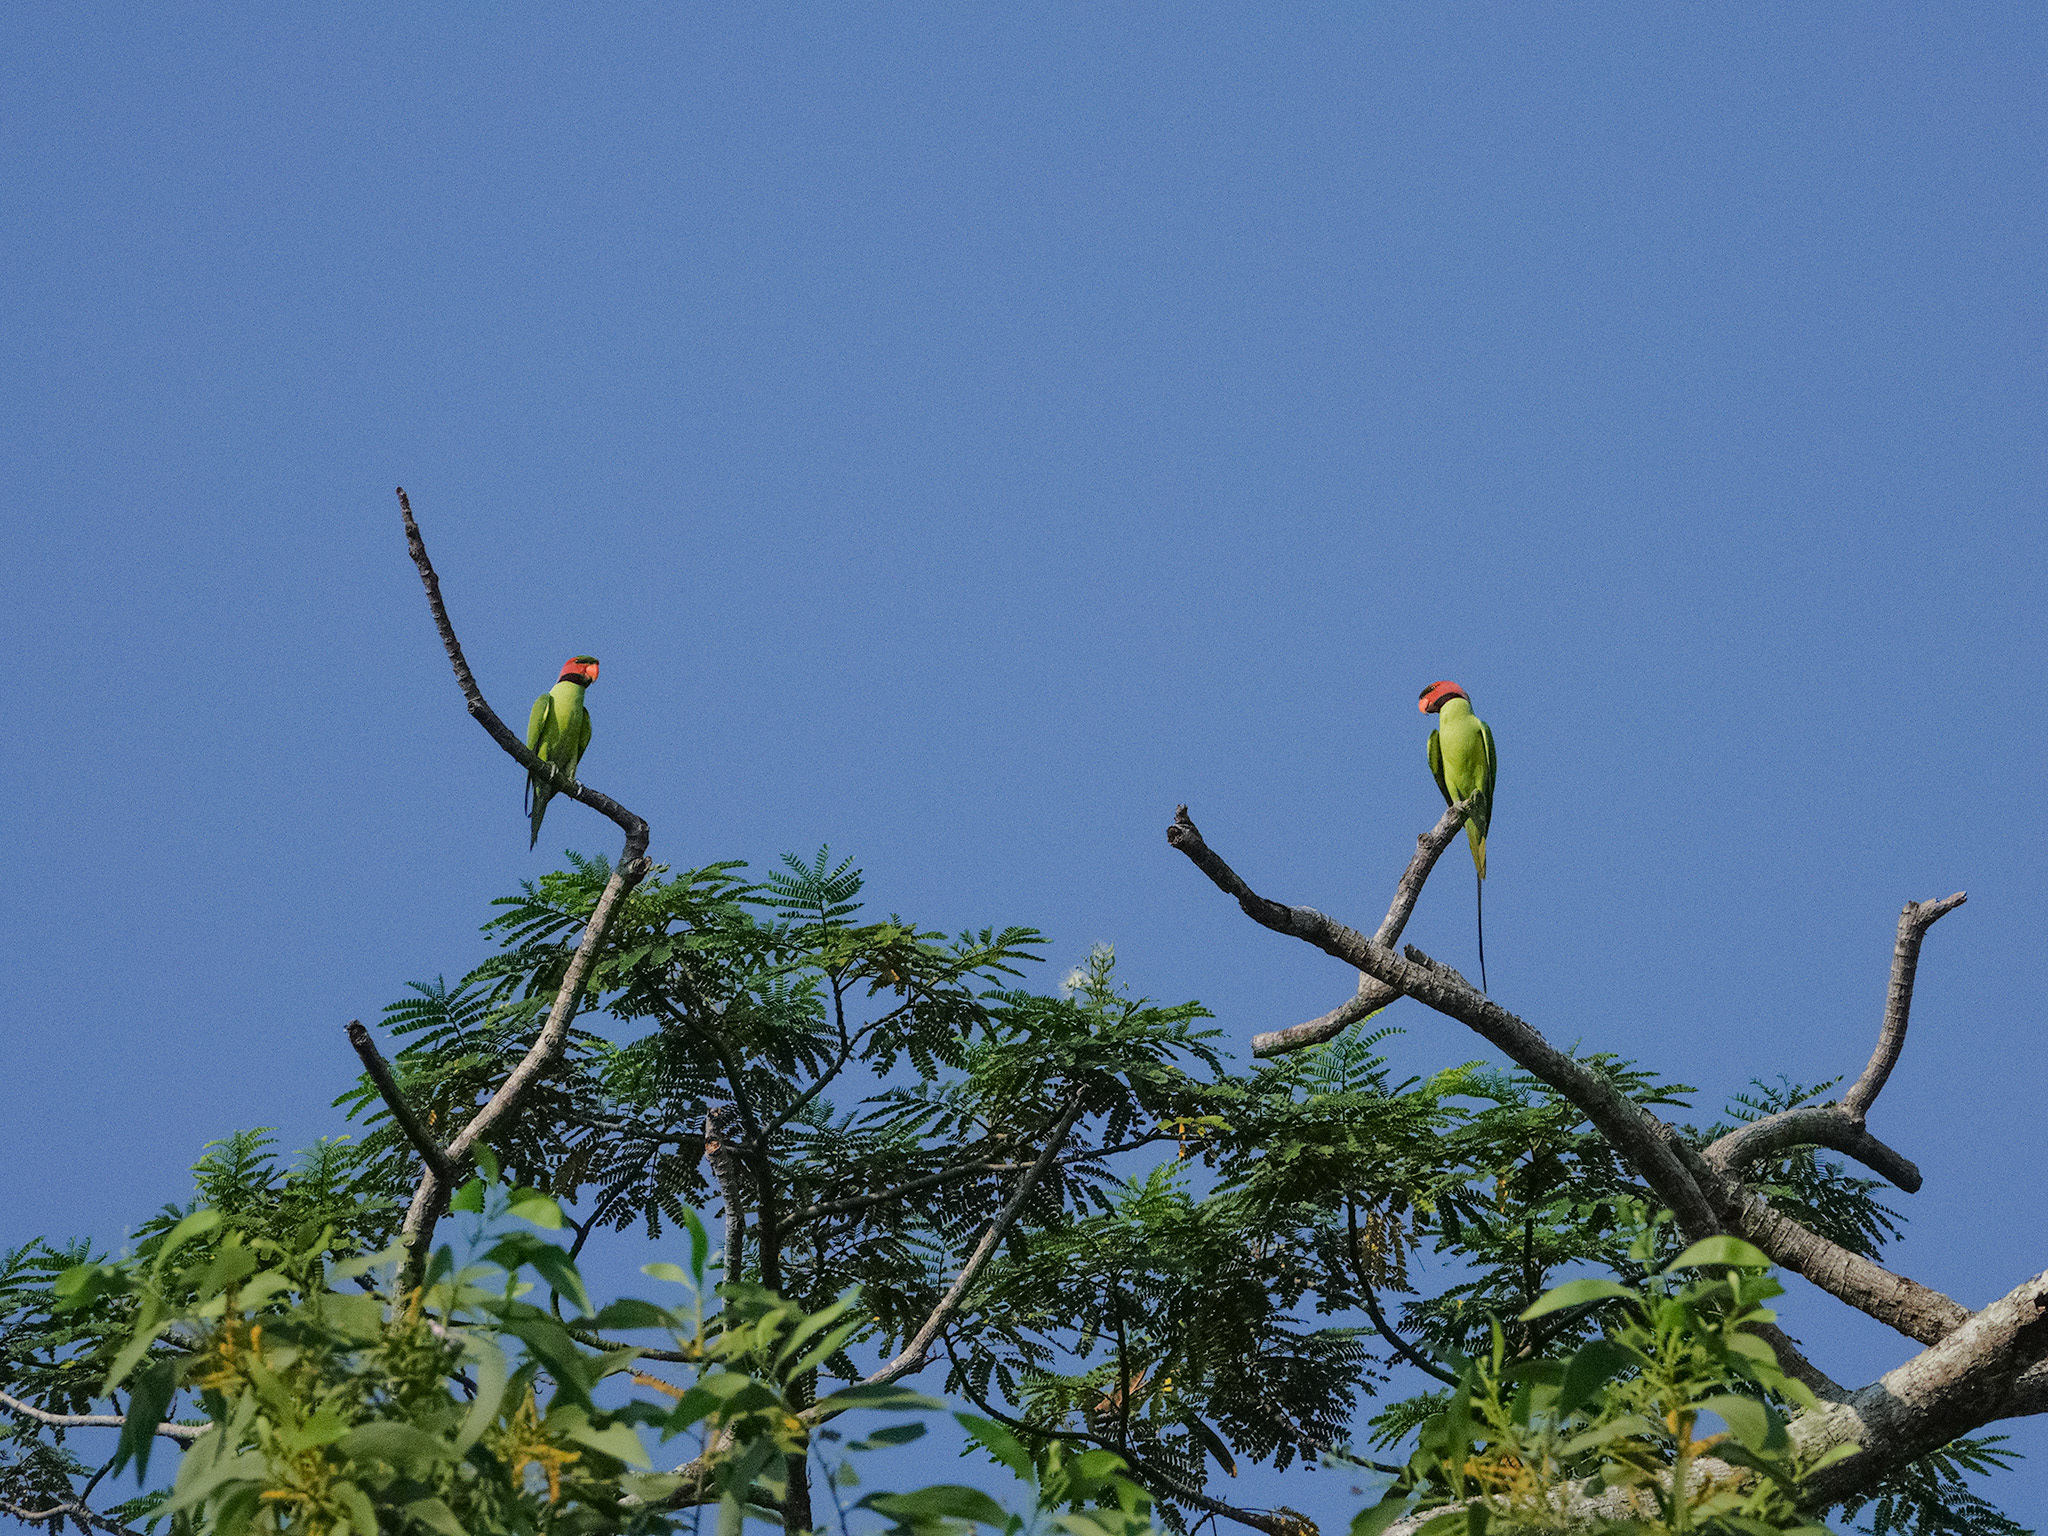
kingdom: Animalia
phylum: Chordata
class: Aves
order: Psittaciformes
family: Psittacidae
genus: Psittacula
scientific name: Psittacula longicauda
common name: Long-tailed parakeet
